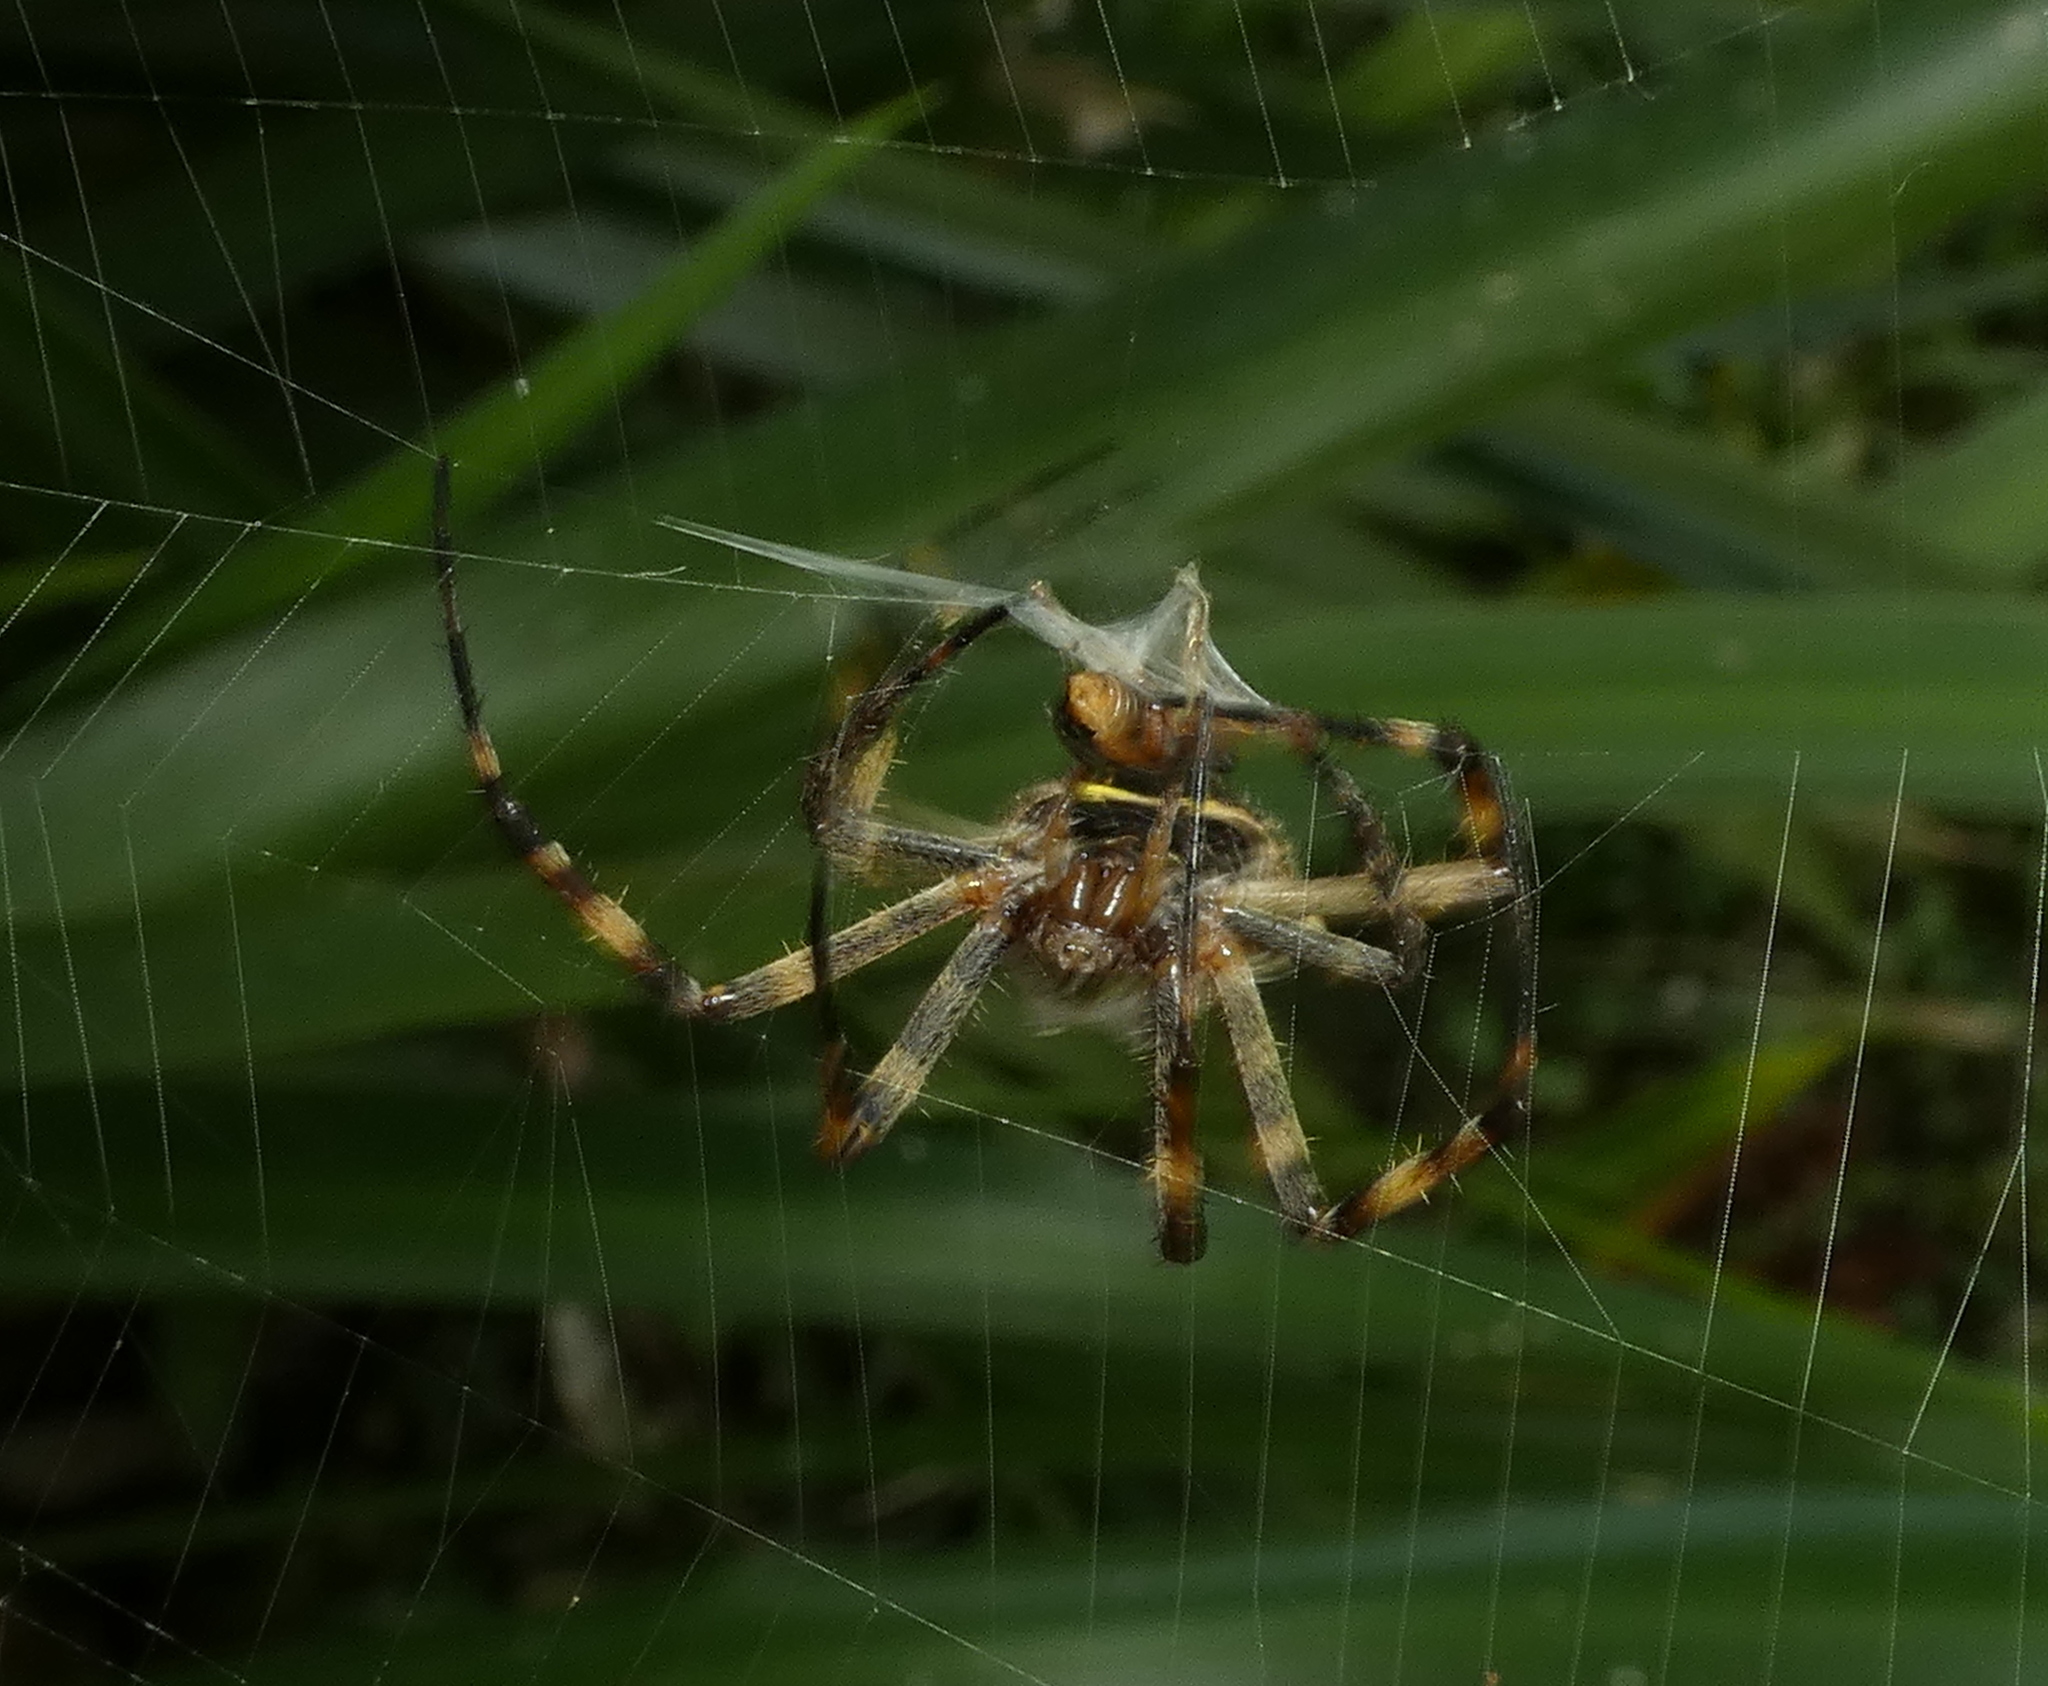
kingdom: Animalia
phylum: Arthropoda
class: Arachnida
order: Araneae
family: Araneidae
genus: Argiope
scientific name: Argiope argentata
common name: Orb weavers
